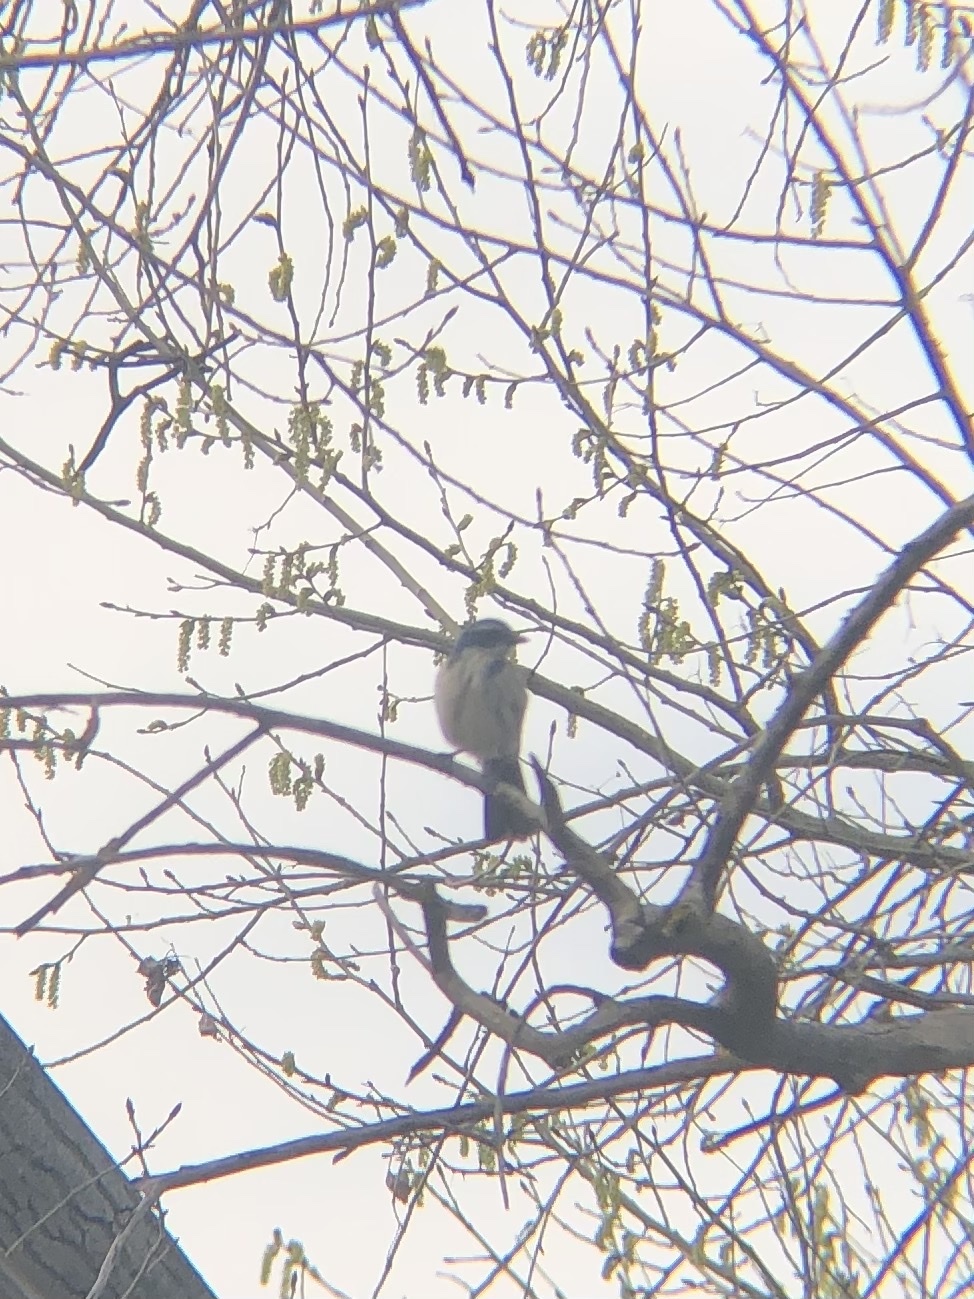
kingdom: Animalia
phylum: Chordata
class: Aves
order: Passeriformes
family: Corvidae
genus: Aphelocoma
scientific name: Aphelocoma californica
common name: California scrub-jay
